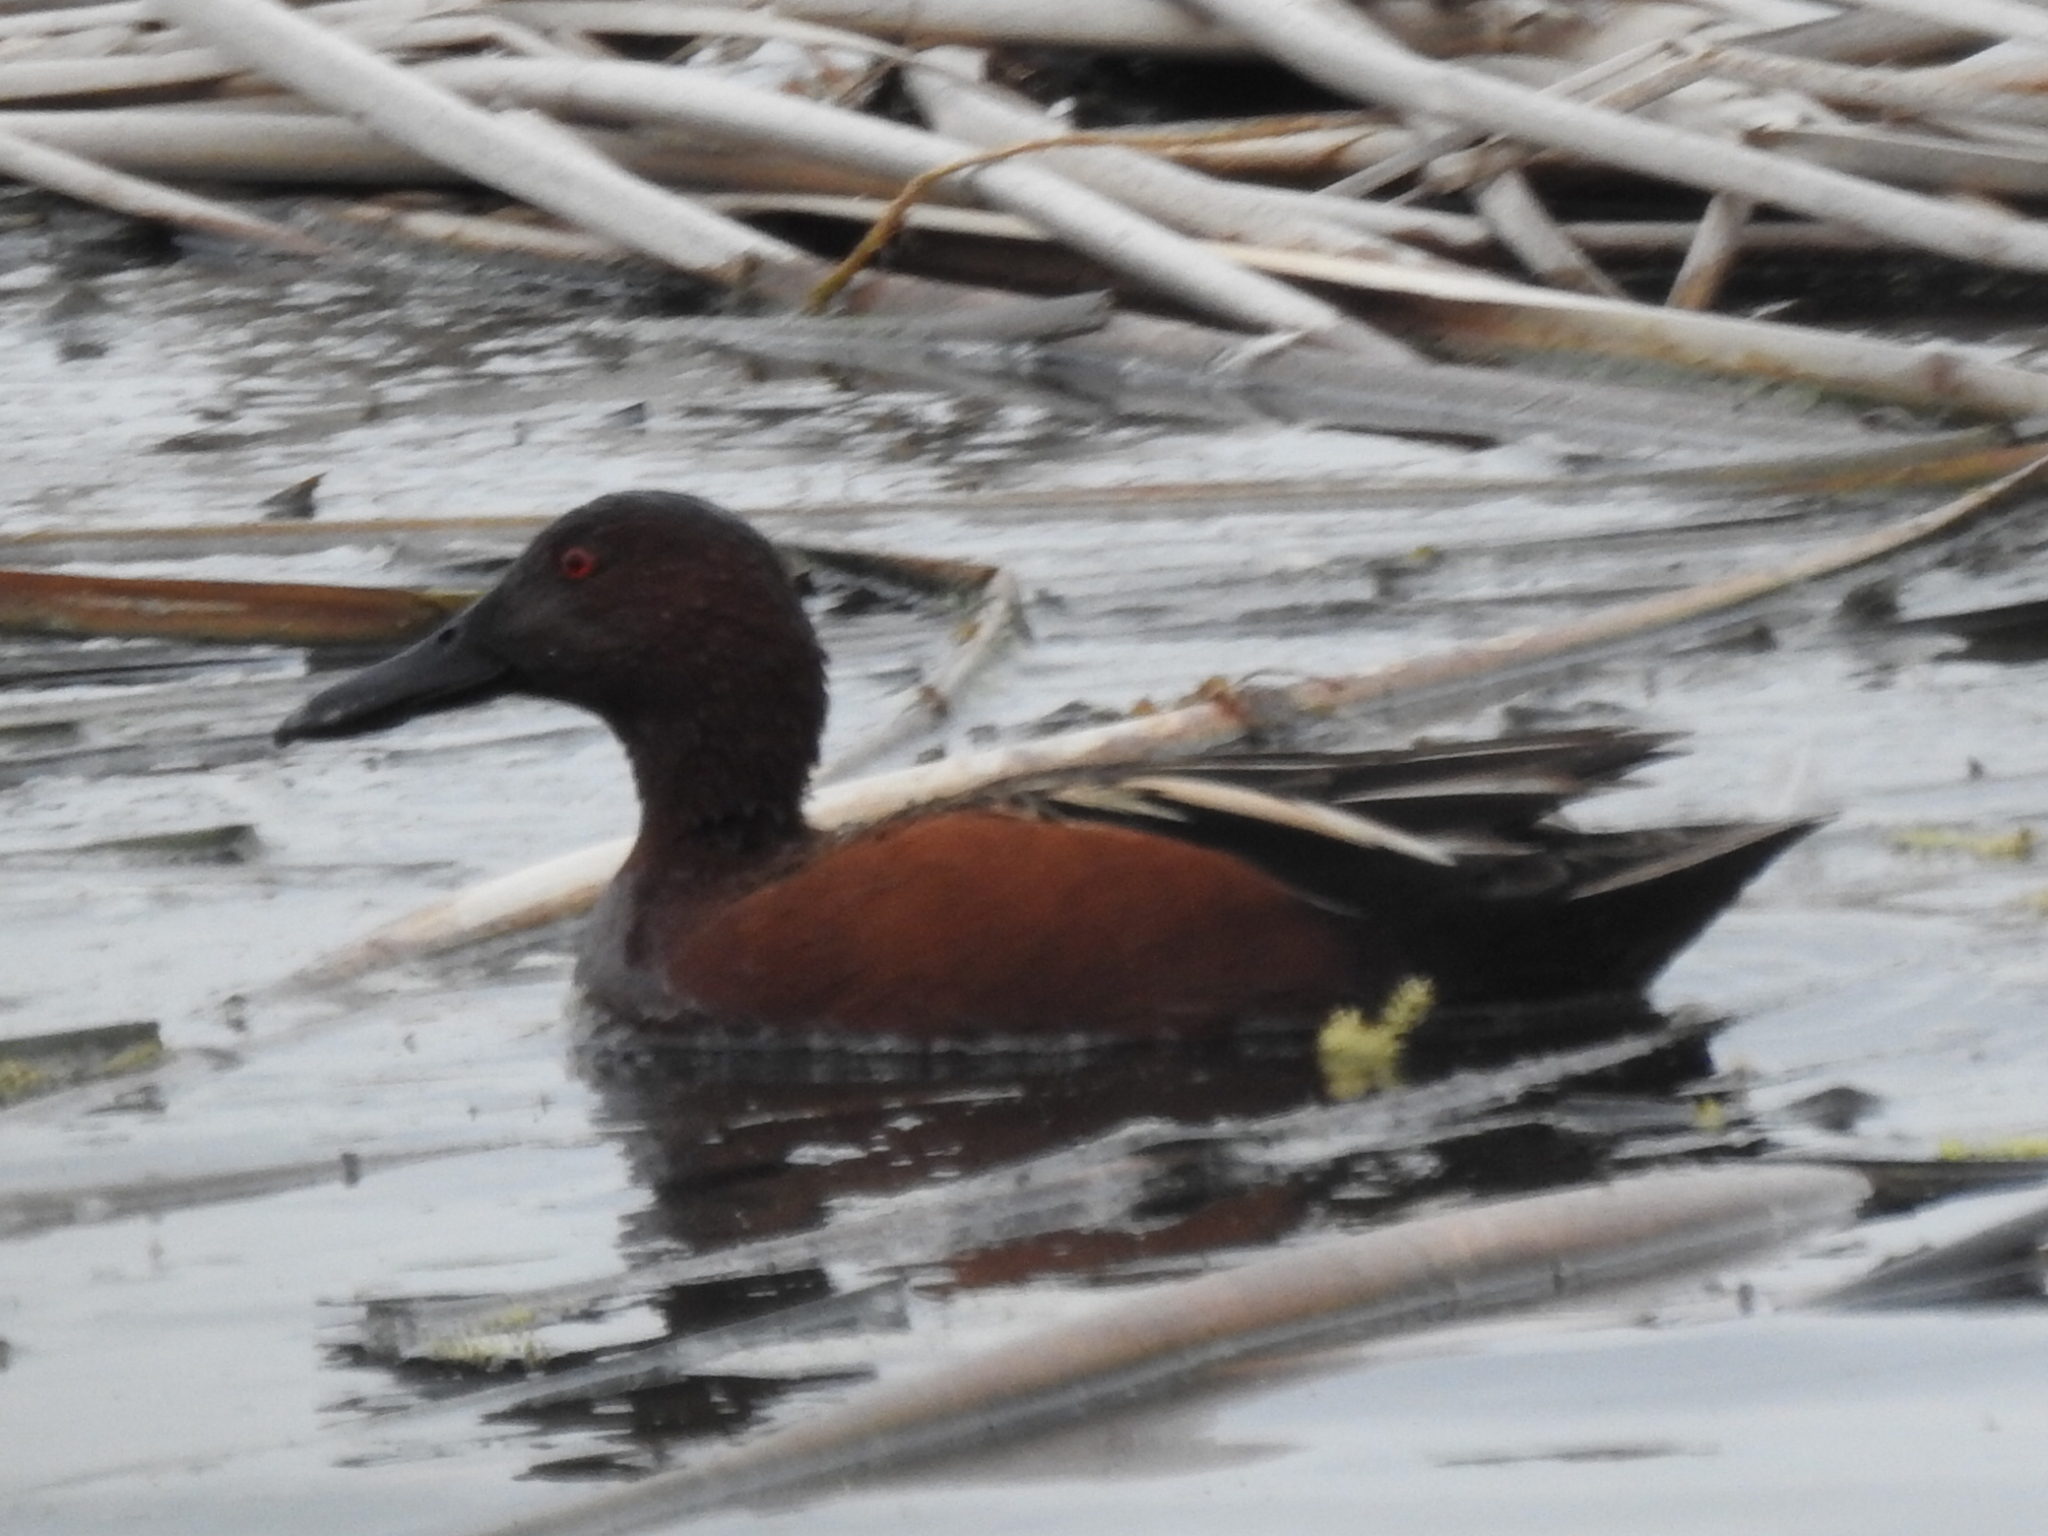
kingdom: Animalia
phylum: Chordata
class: Aves
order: Anseriformes
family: Anatidae
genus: Spatula
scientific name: Spatula cyanoptera
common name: Cinnamon teal
